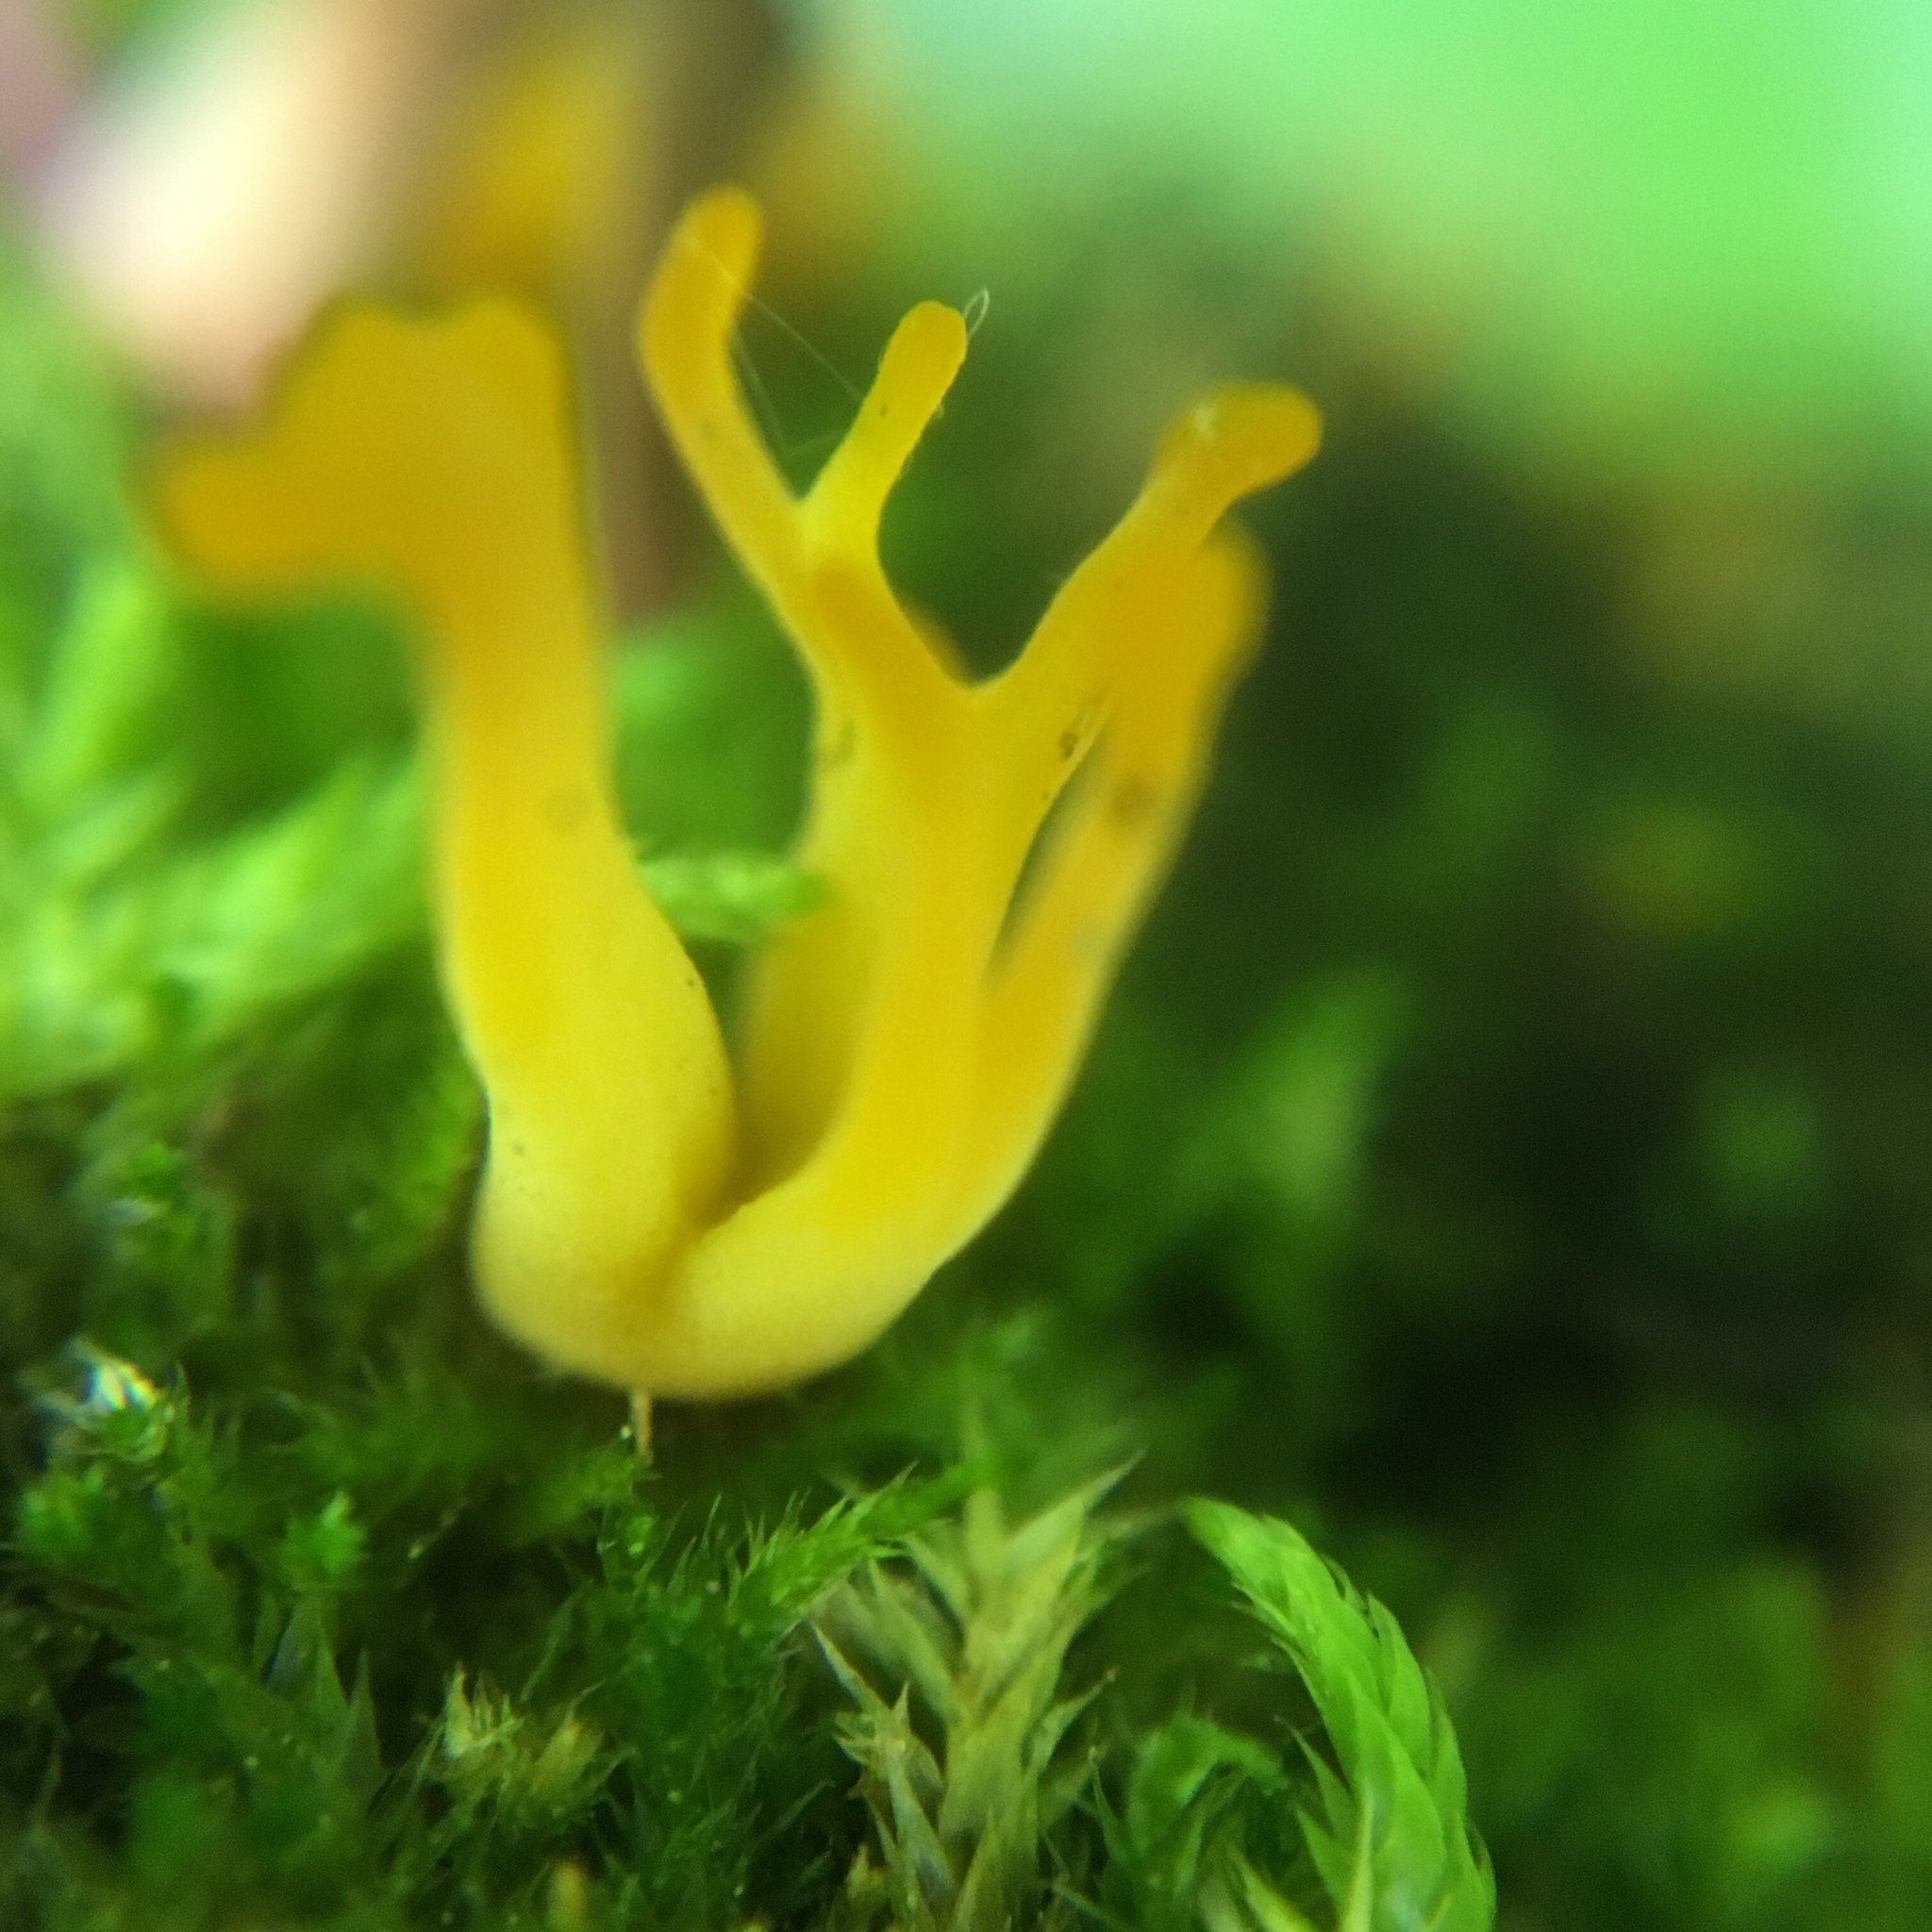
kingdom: Fungi
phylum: Basidiomycota
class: Dacrymycetes
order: Dacrymycetales
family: Dacrymycetaceae
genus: Calocera
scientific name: Calocera cornea
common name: Small stagshorn
